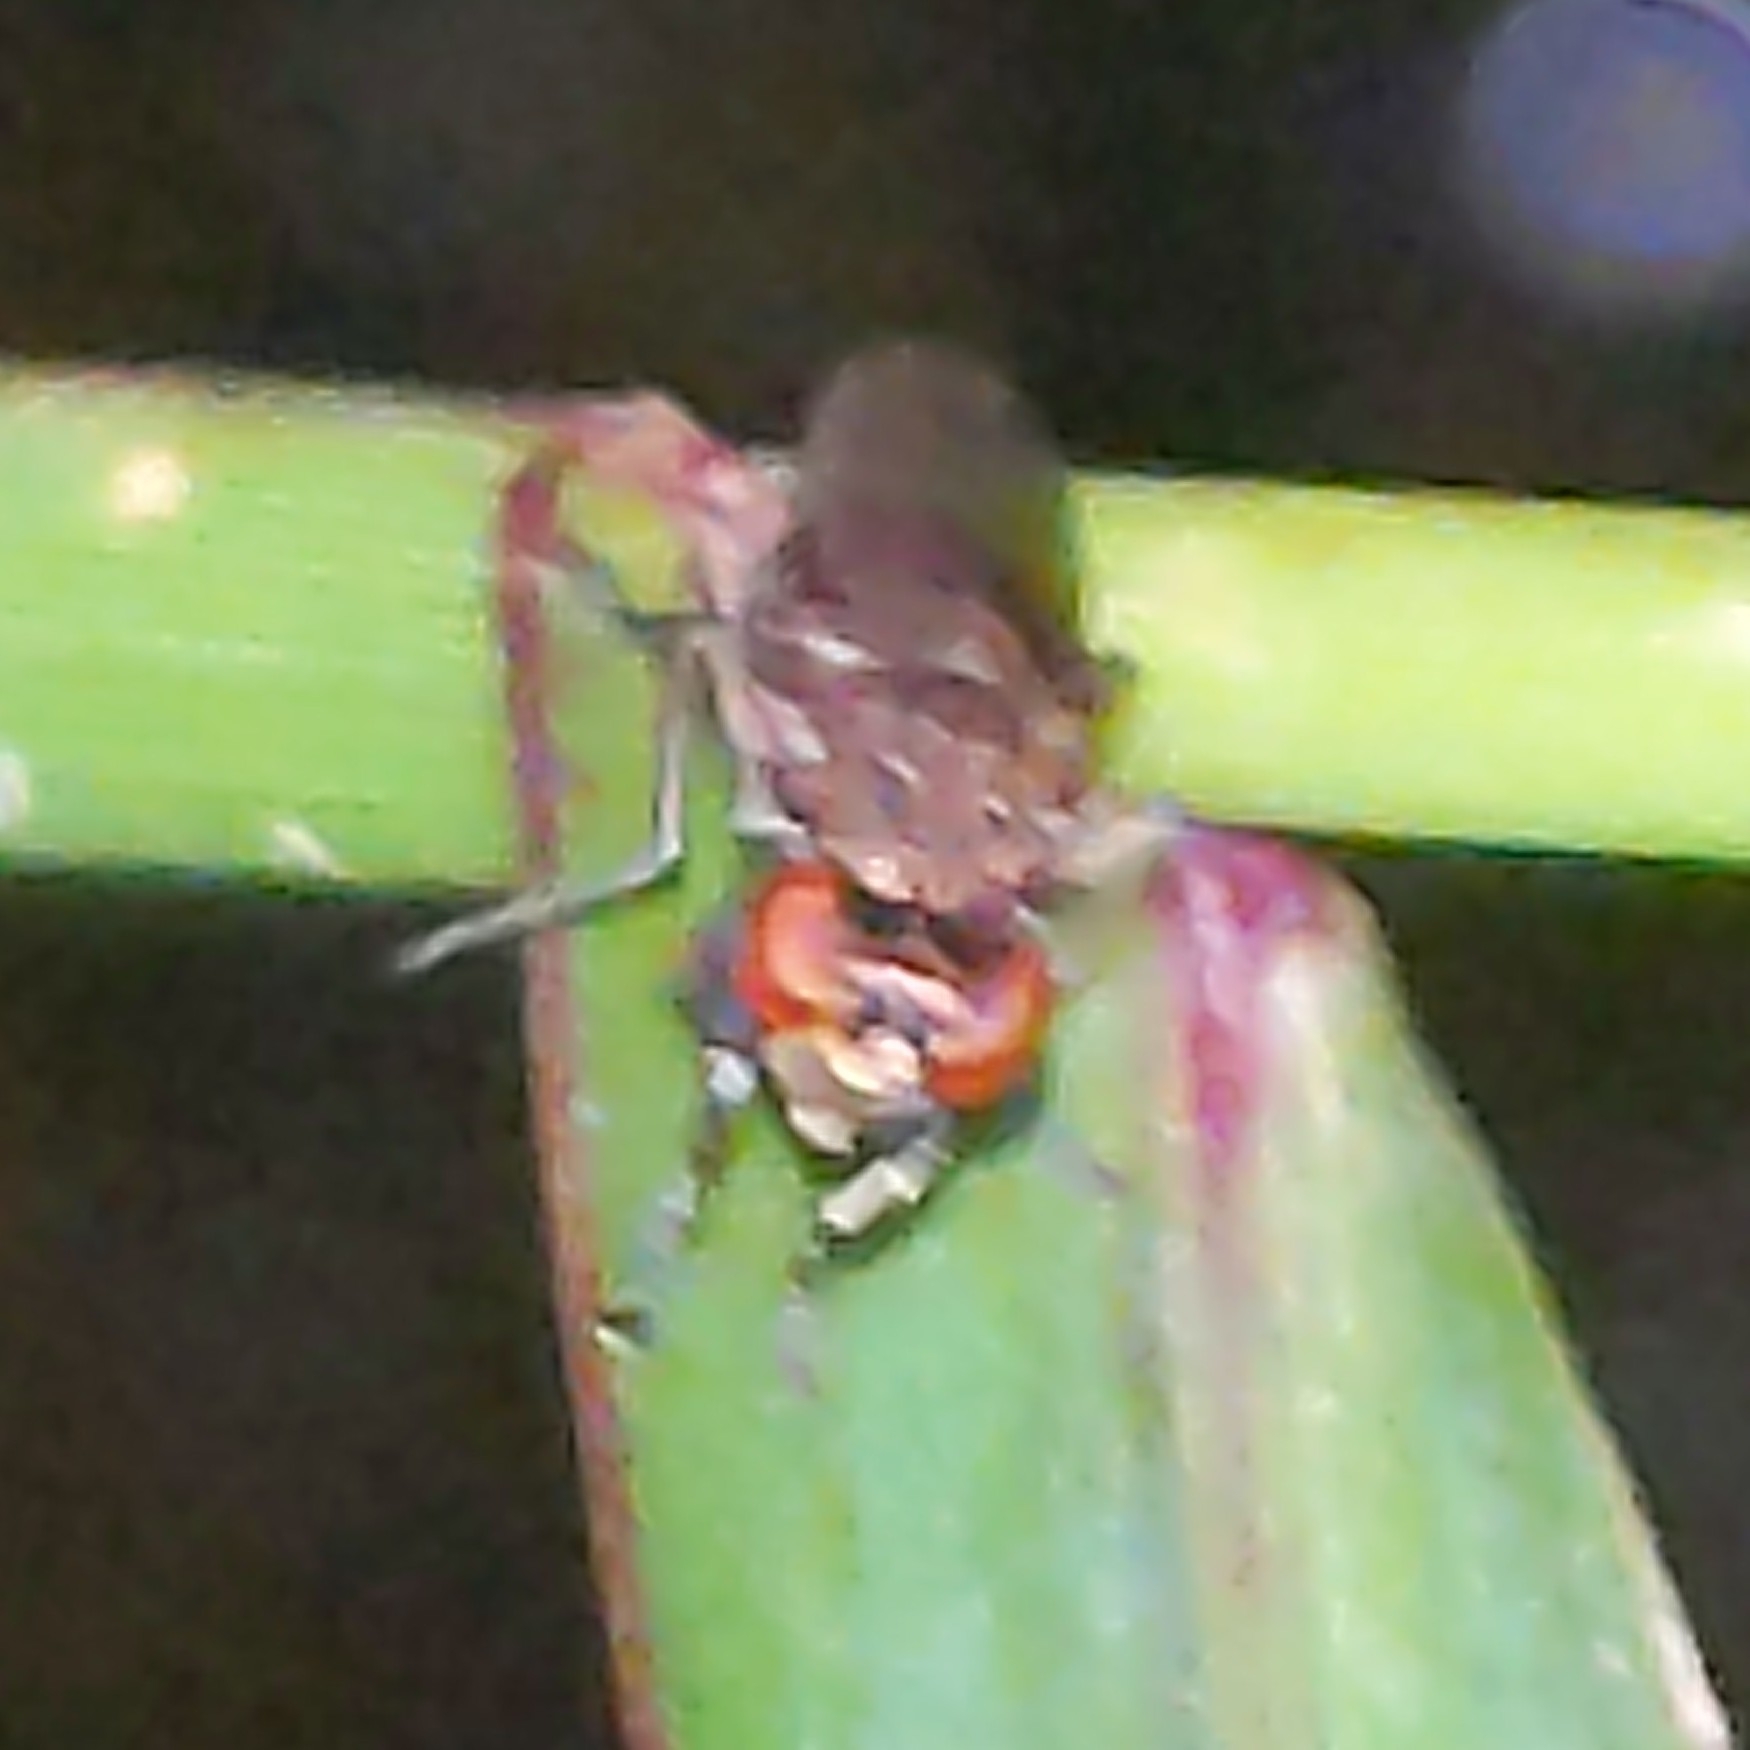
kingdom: Animalia
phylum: Arthropoda
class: Insecta
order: Diptera
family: Ephydridae
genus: Ochthera
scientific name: Ochthera
